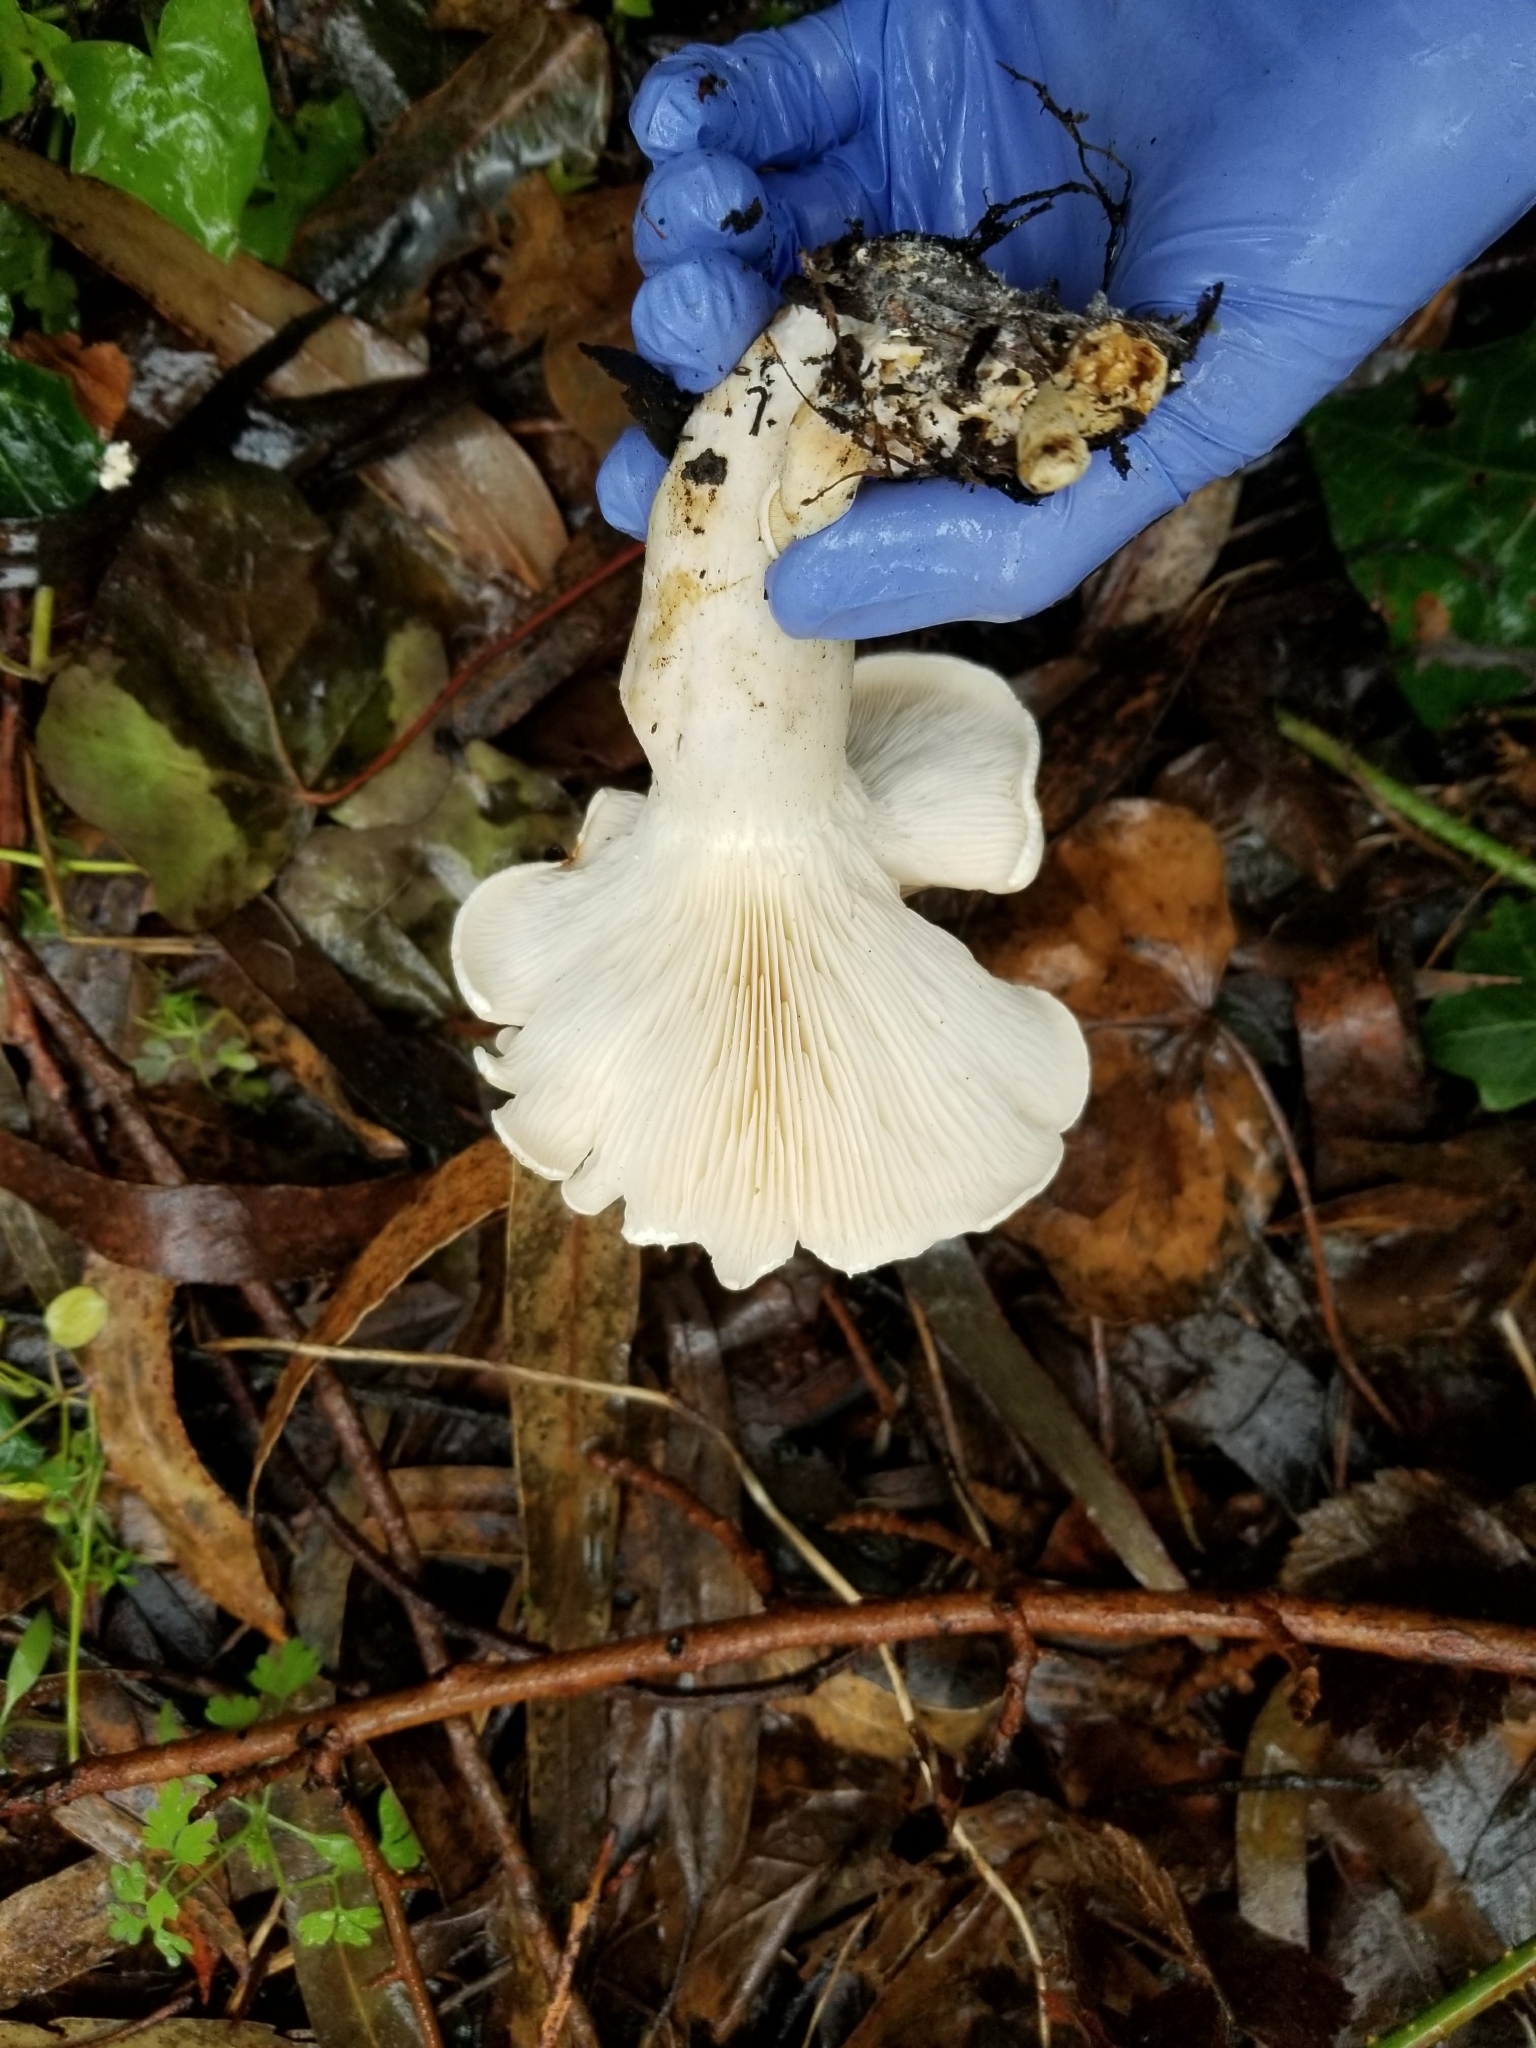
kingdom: Fungi
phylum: Basidiomycota
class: Agaricomycetes
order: Agaricales
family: Tricholomataceae
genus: Leucopaxillus
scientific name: Leucopaxillus albissimus
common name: Large white leucopax
